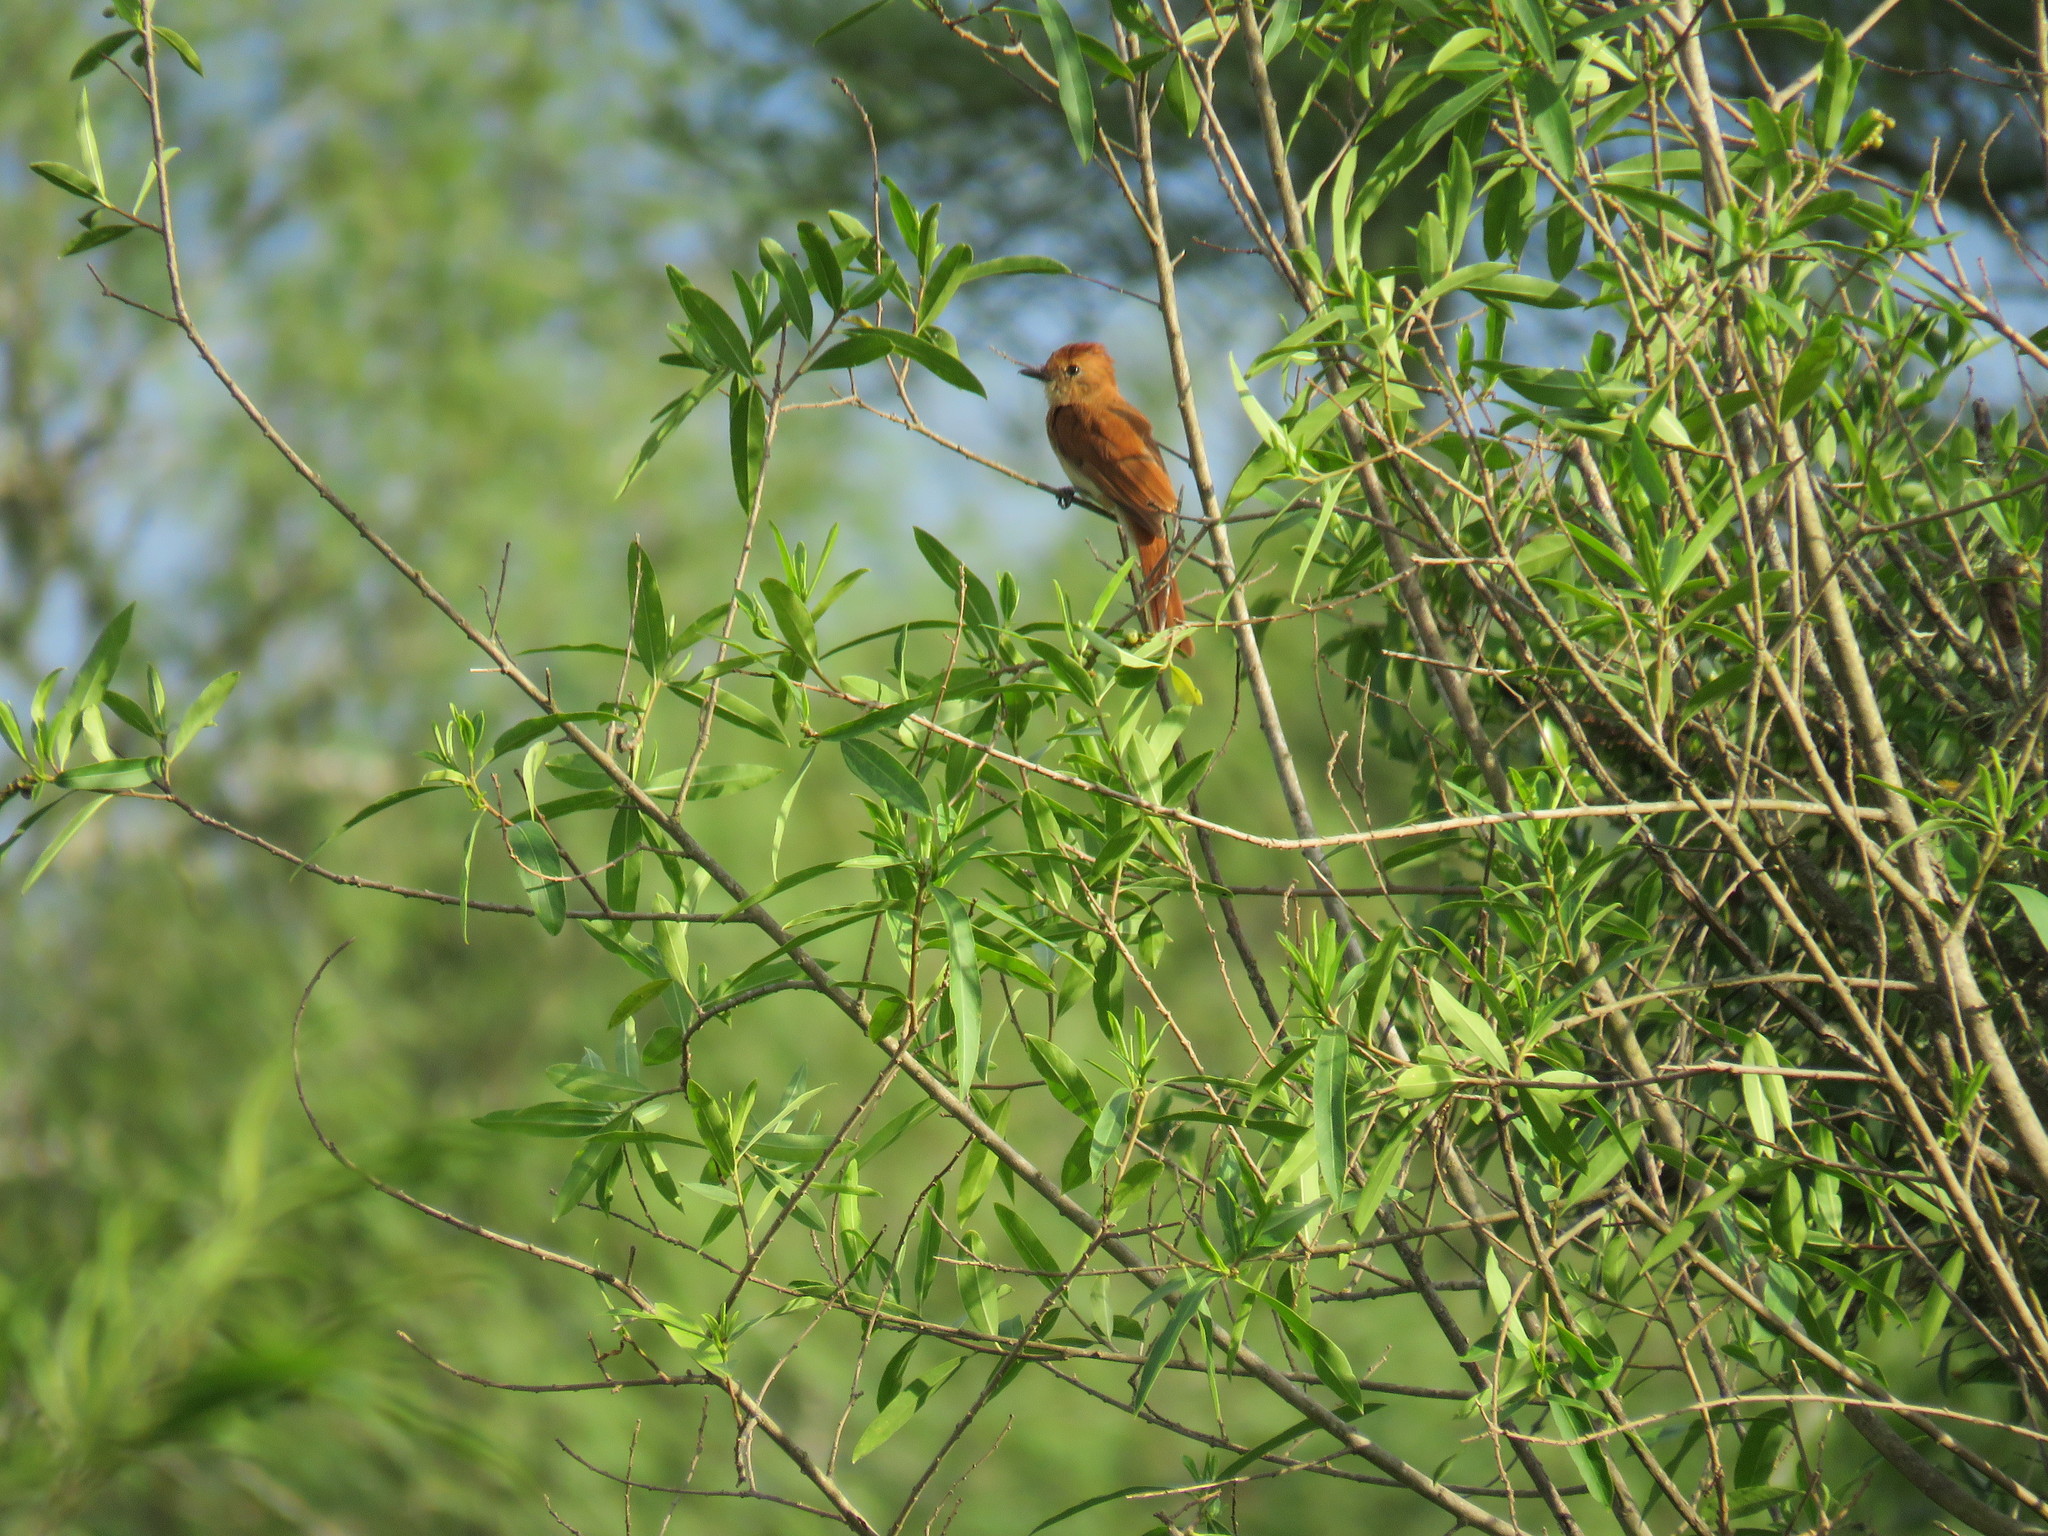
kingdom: Animalia
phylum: Chordata
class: Aves
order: Passeriformes
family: Tyrannidae
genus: Casiornis
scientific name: Casiornis rufus
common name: Rufous casiornis
